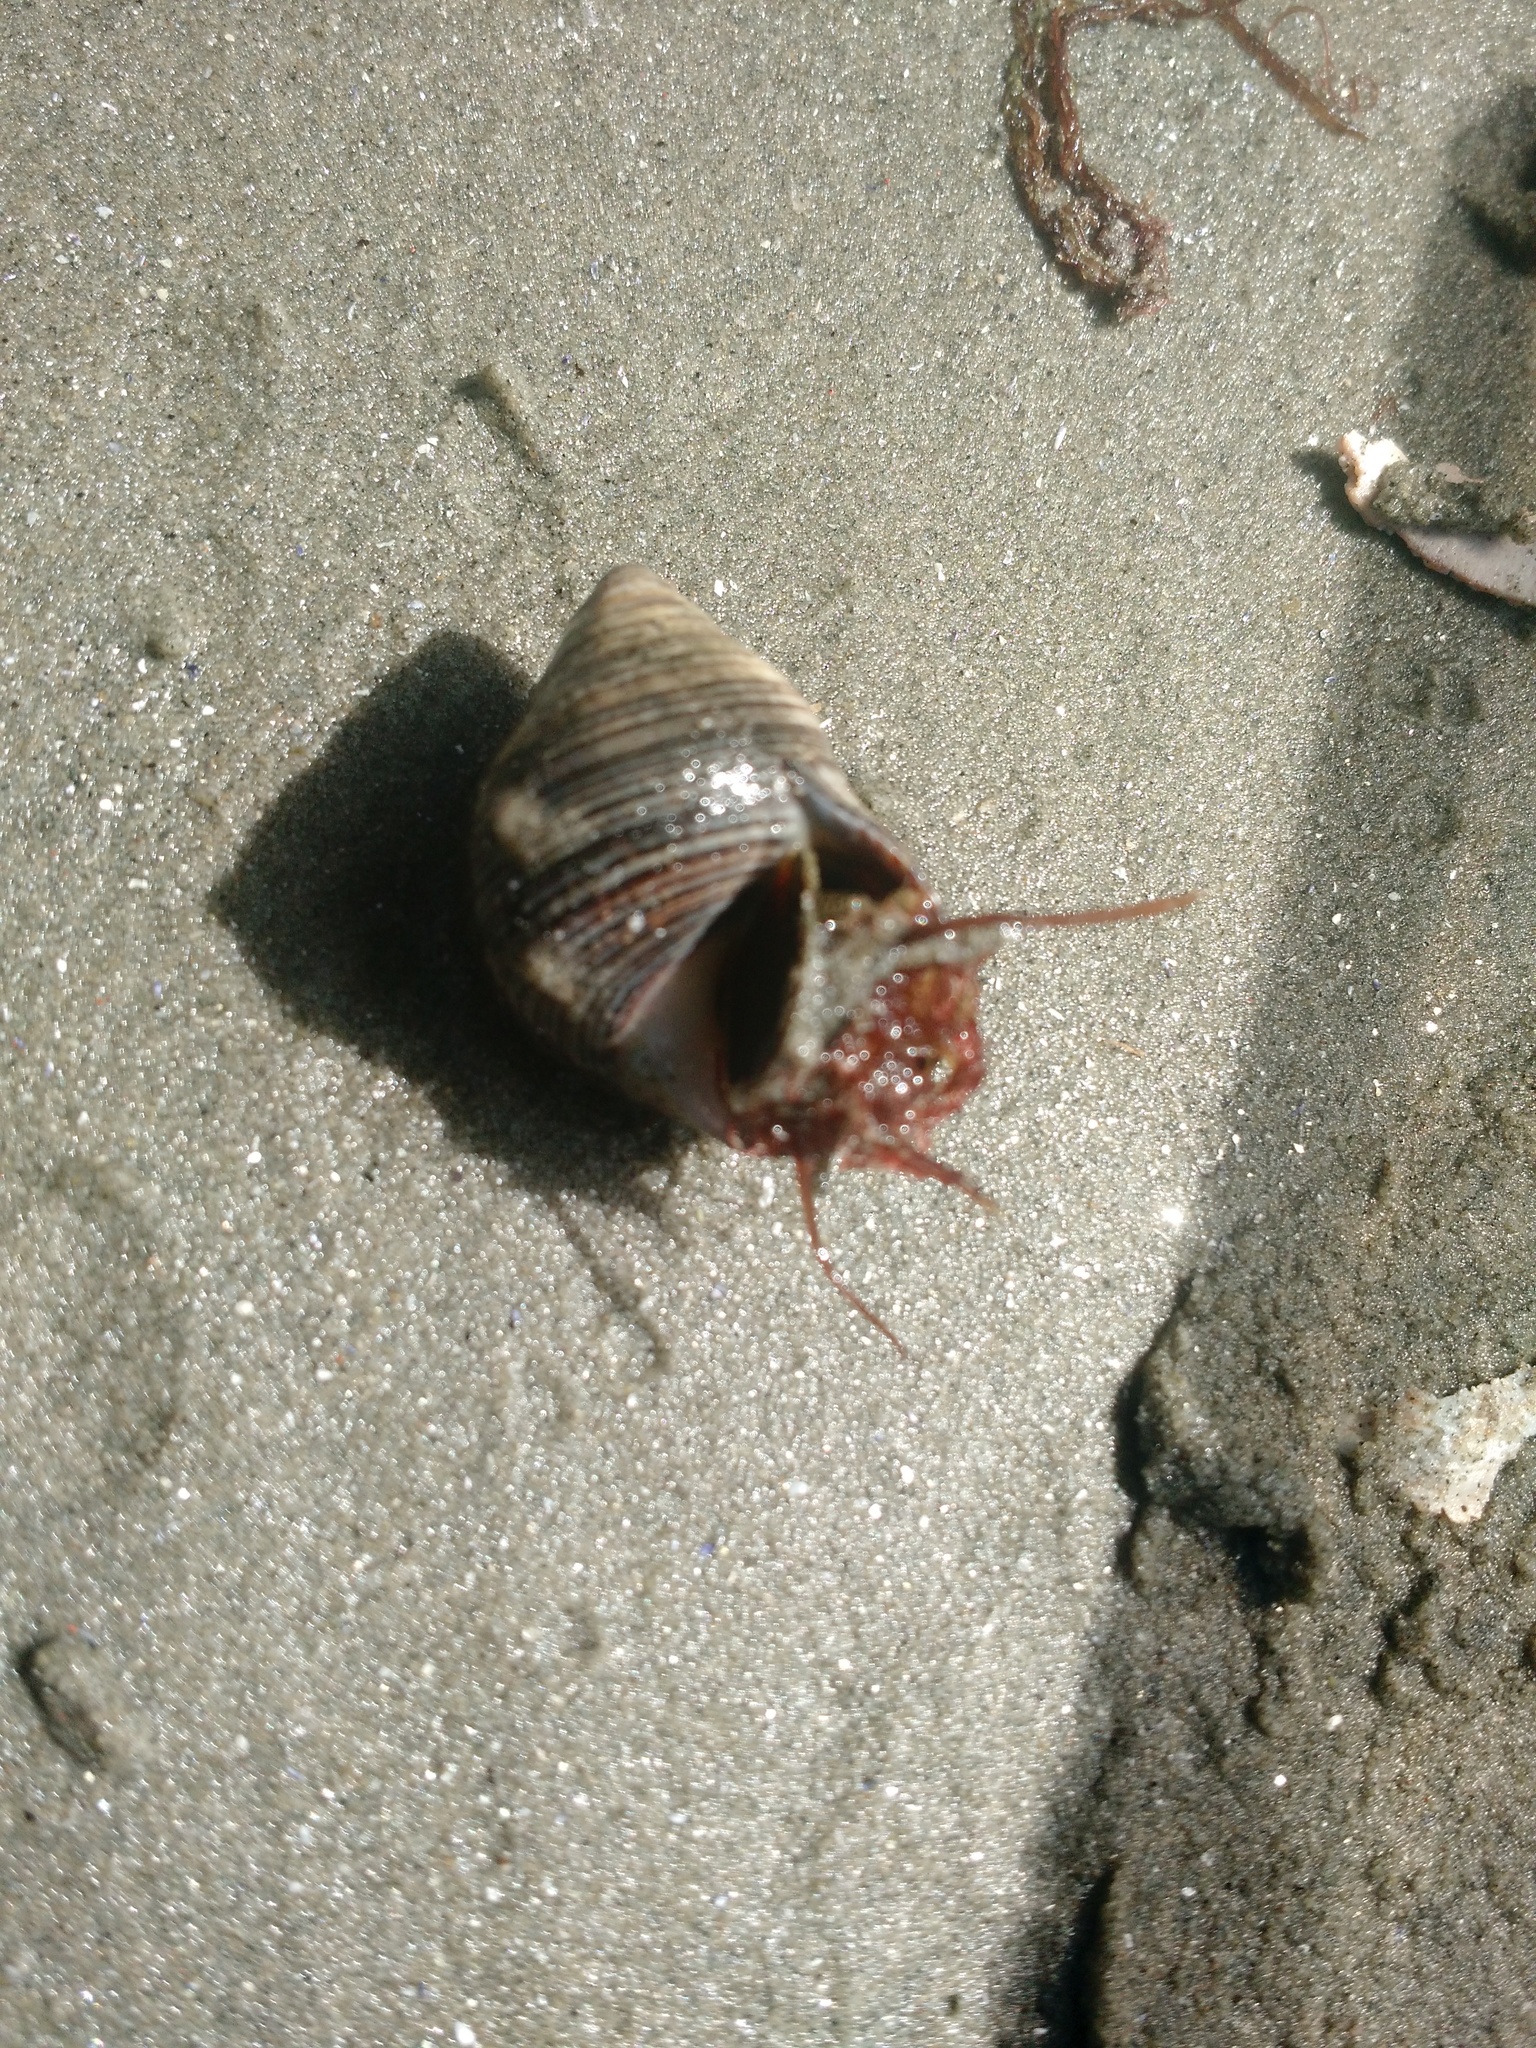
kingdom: Animalia
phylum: Mollusca
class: Gastropoda
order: Littorinimorpha
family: Littorinidae
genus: Littorina
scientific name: Littorina littorea
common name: Common periwinkle
